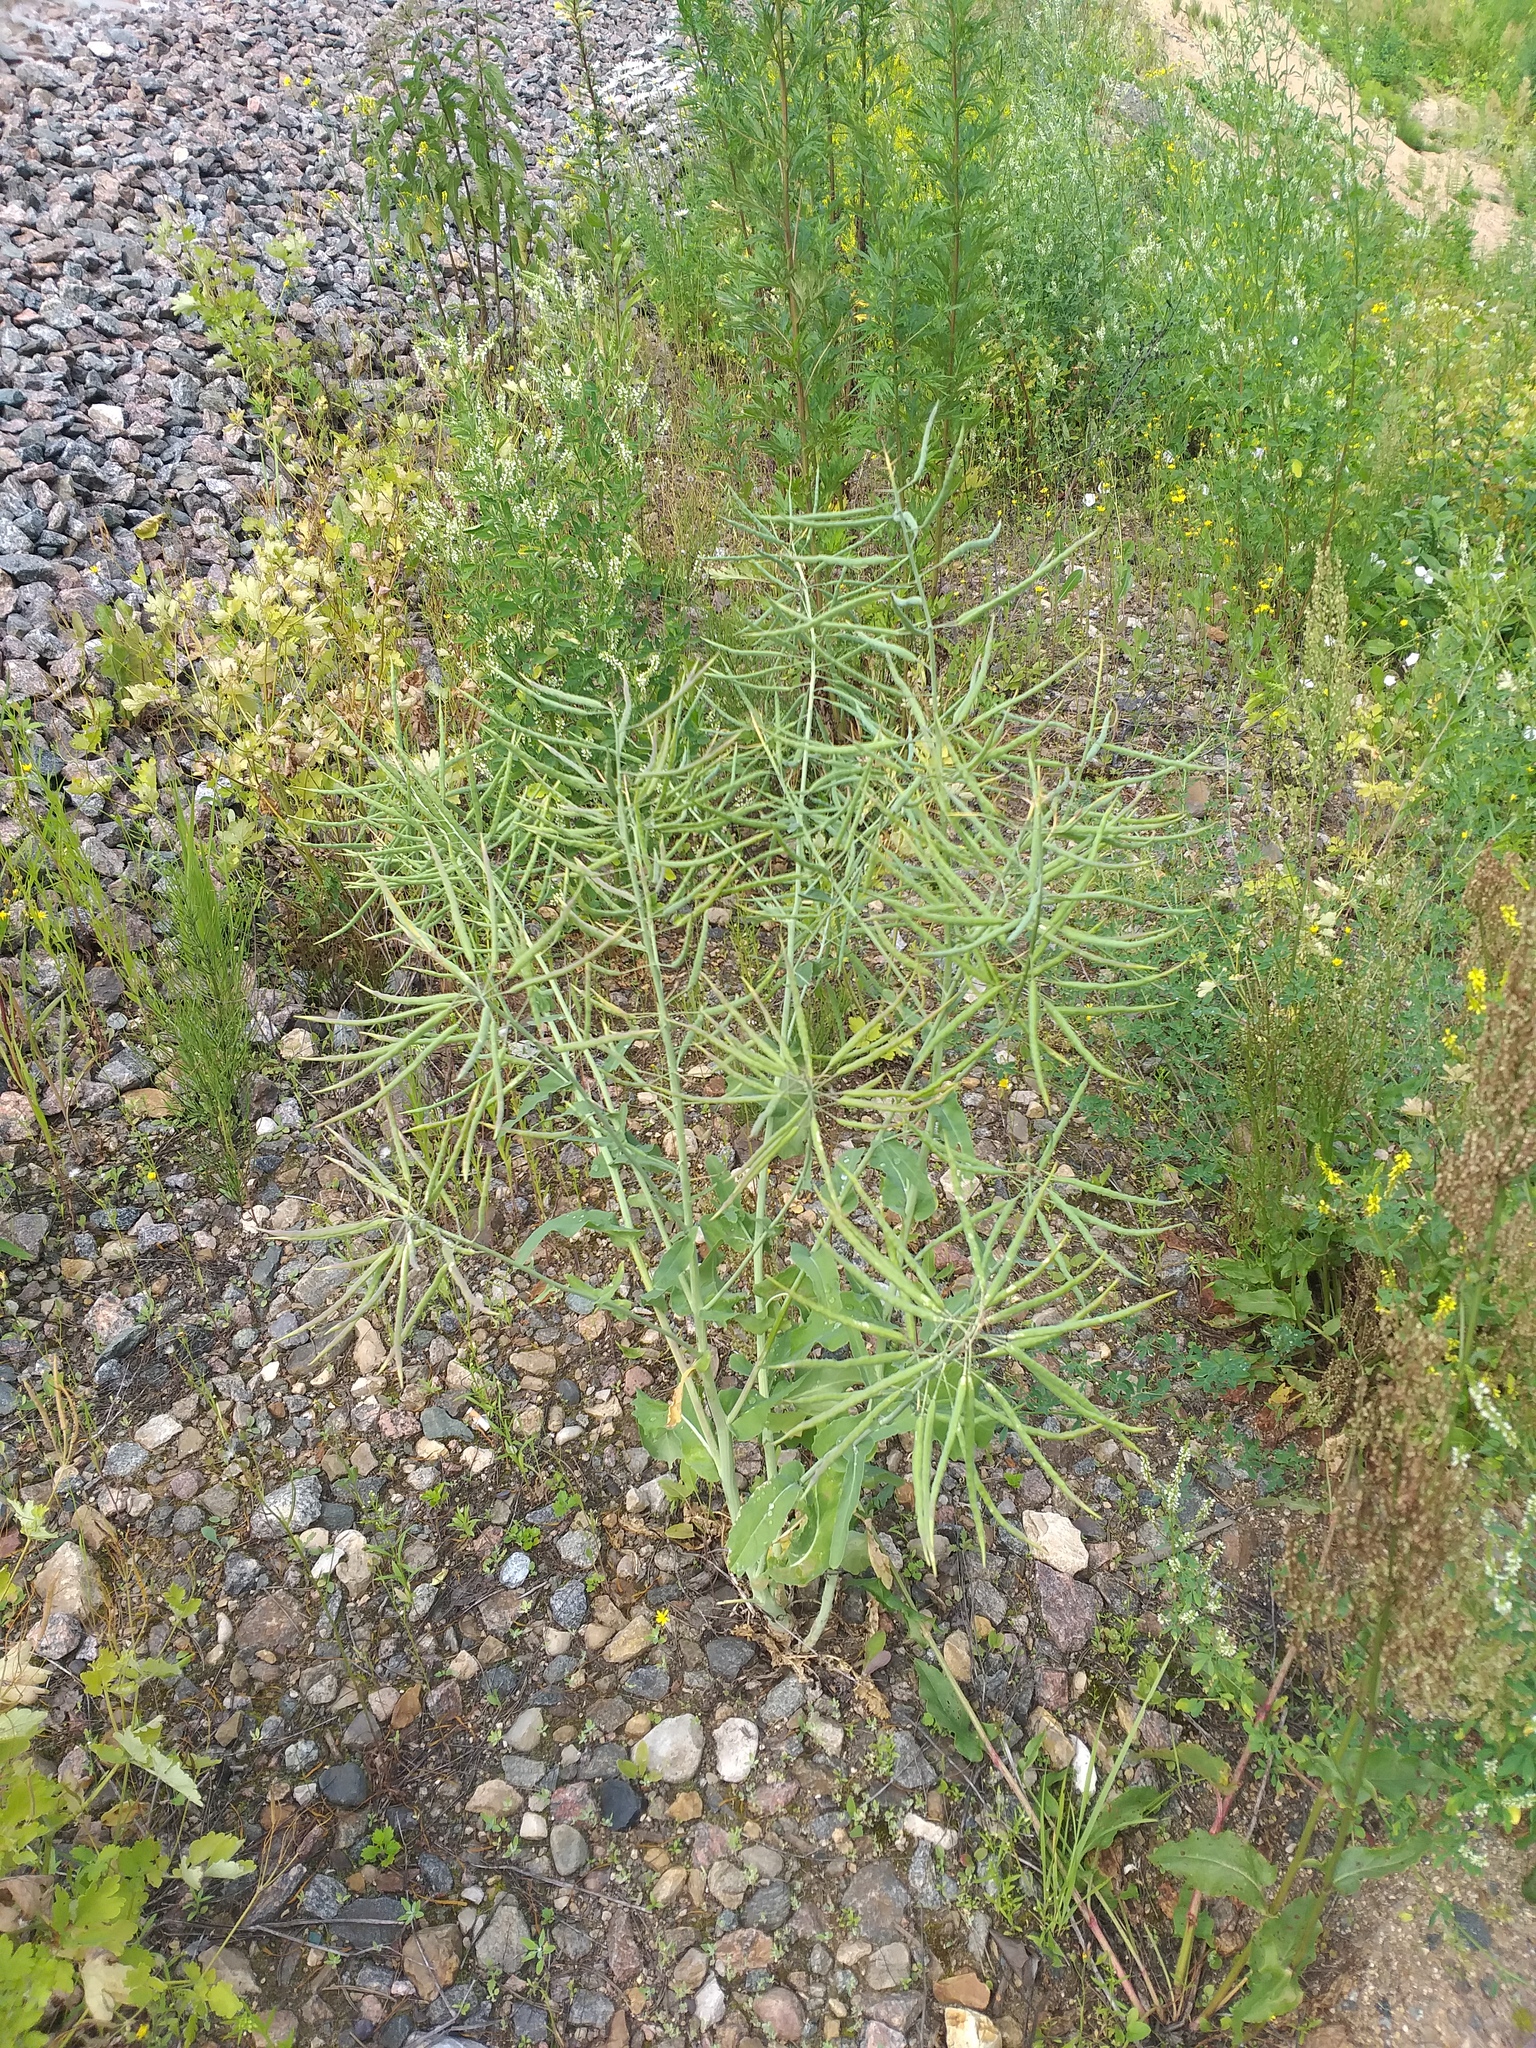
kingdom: Plantae
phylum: Tracheophyta
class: Magnoliopsida
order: Brassicales
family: Brassicaceae
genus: Brassica
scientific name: Brassica napus
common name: Rape
